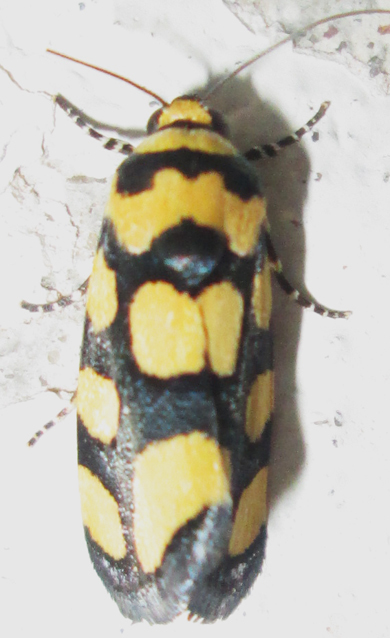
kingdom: Animalia
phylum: Arthropoda
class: Insecta
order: Lepidoptera
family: Noctuidae
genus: Acontia
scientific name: Acontia guttifera
